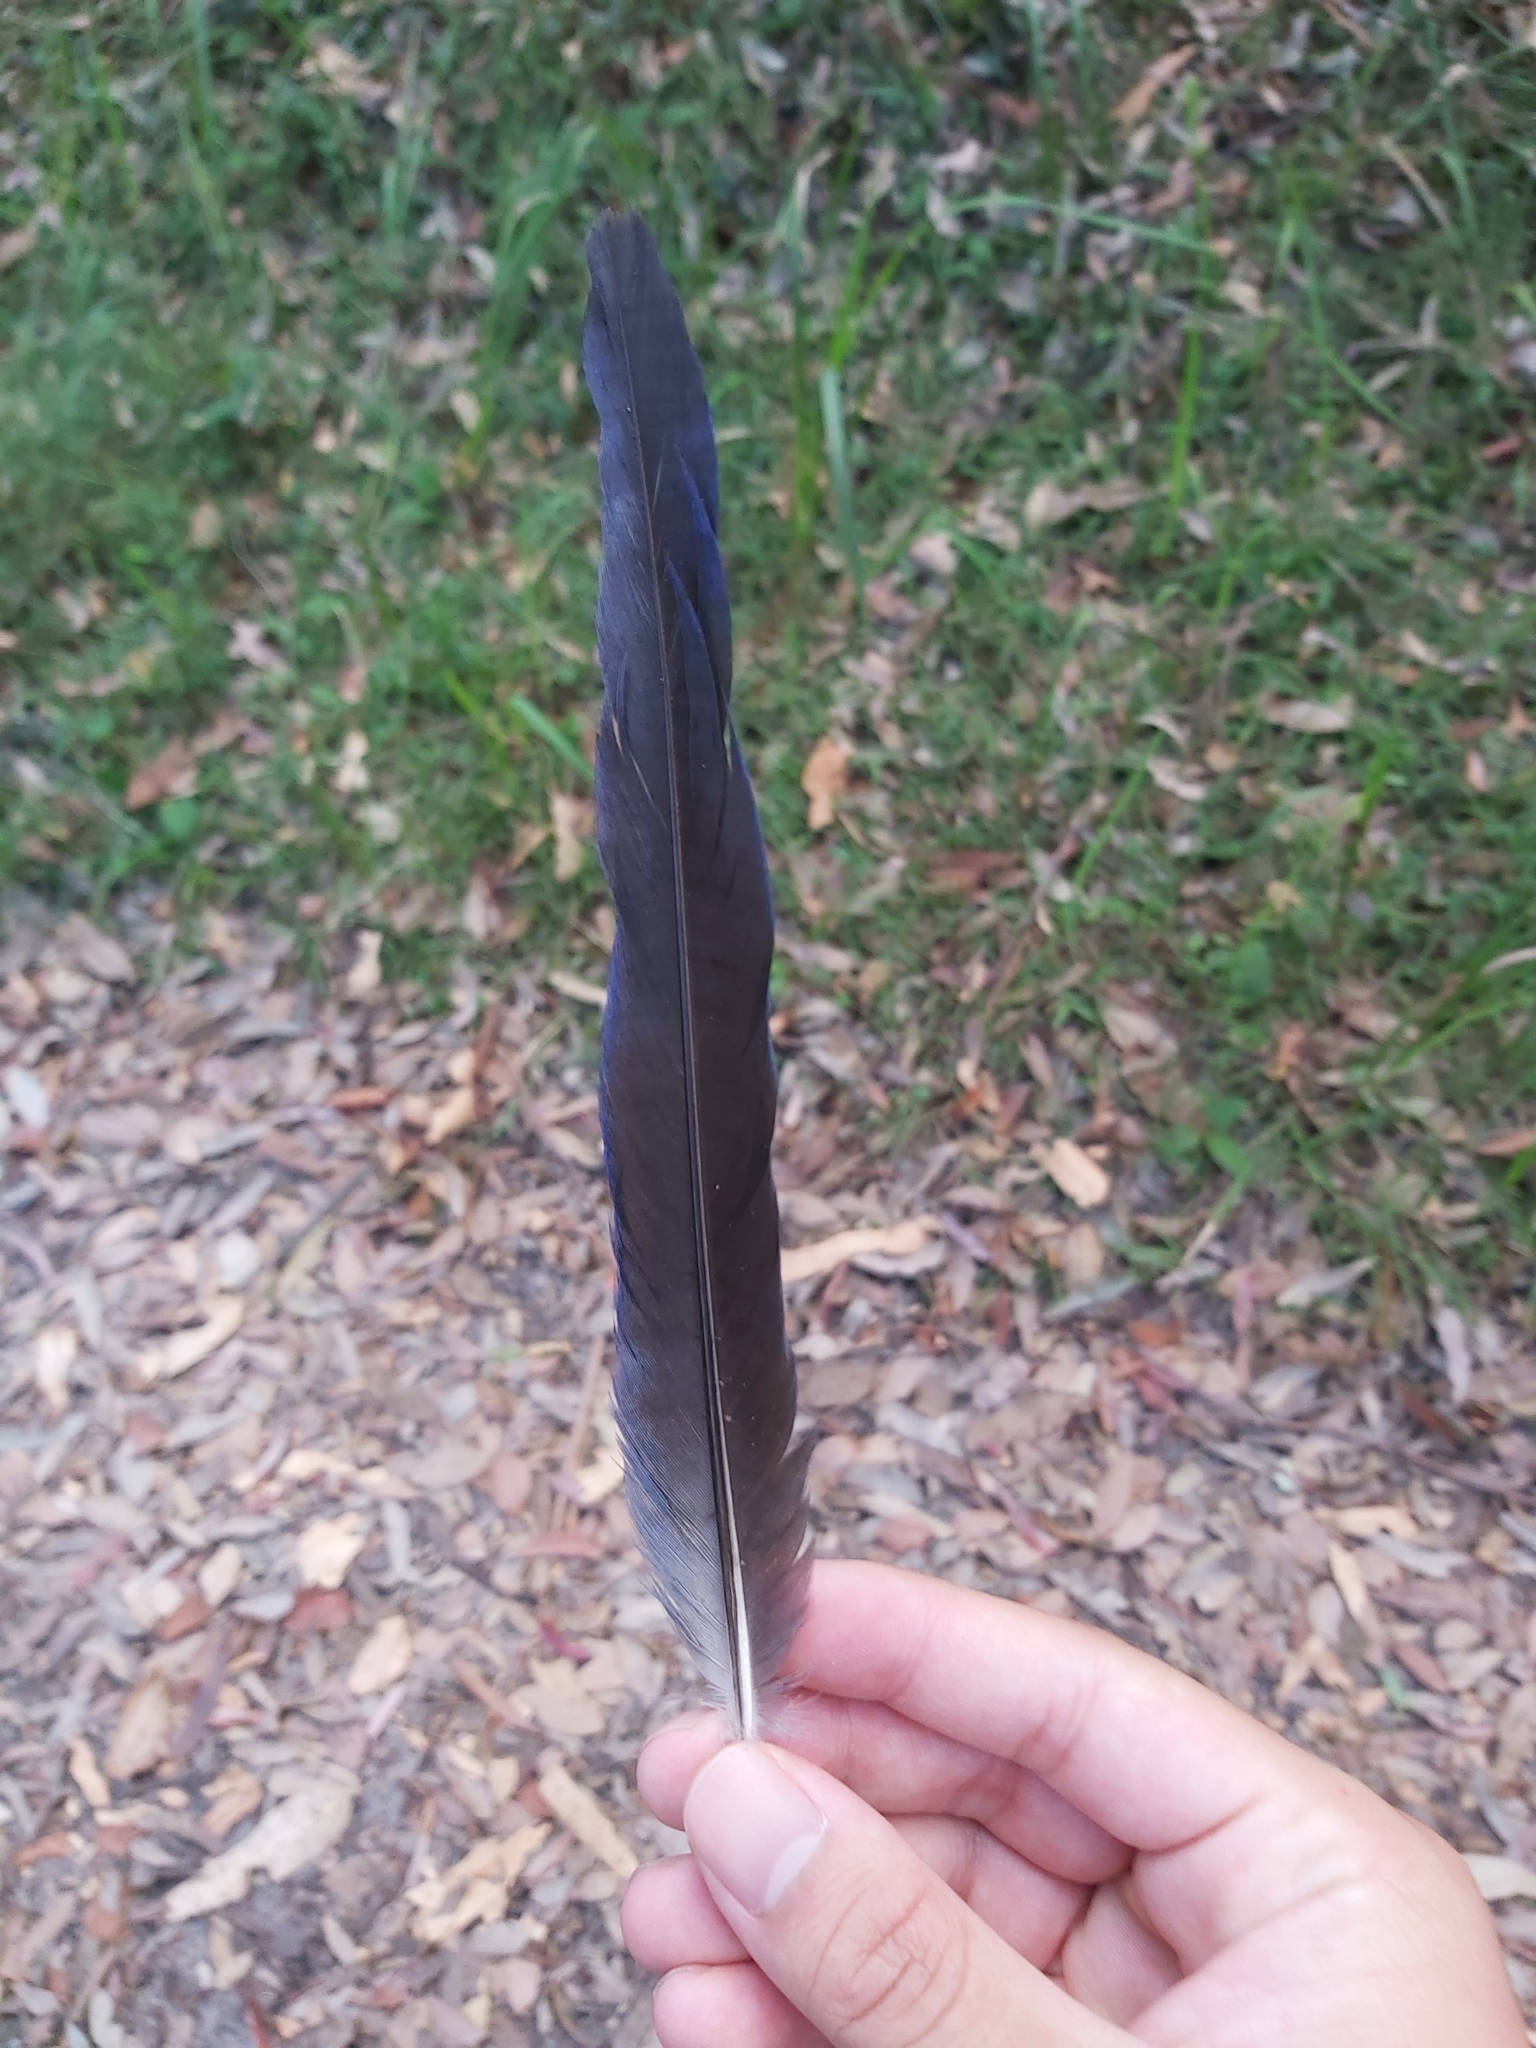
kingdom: Animalia
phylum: Chordata
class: Aves
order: Psittaciformes
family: Psittacidae
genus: Platycercus
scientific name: Platycercus elegans
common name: Crimson rosella
